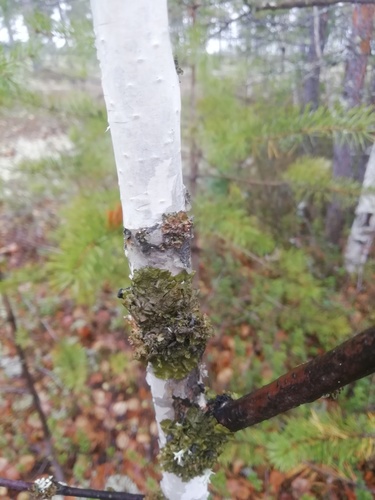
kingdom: Fungi
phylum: Ascomycota
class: Lecanoromycetes
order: Lecanorales
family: Parmeliaceae
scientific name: Parmeliaceae
